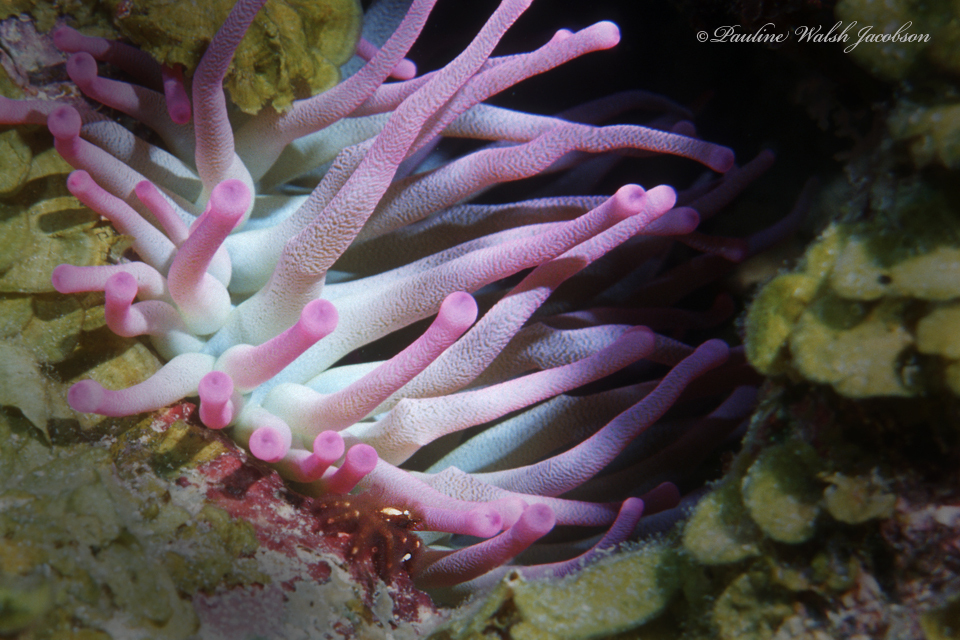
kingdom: Animalia
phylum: Cnidaria
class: Anthozoa
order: Actiniaria
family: Actiniidae
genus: Condylactis
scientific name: Condylactis gigantea
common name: Giant caribbean anemone
